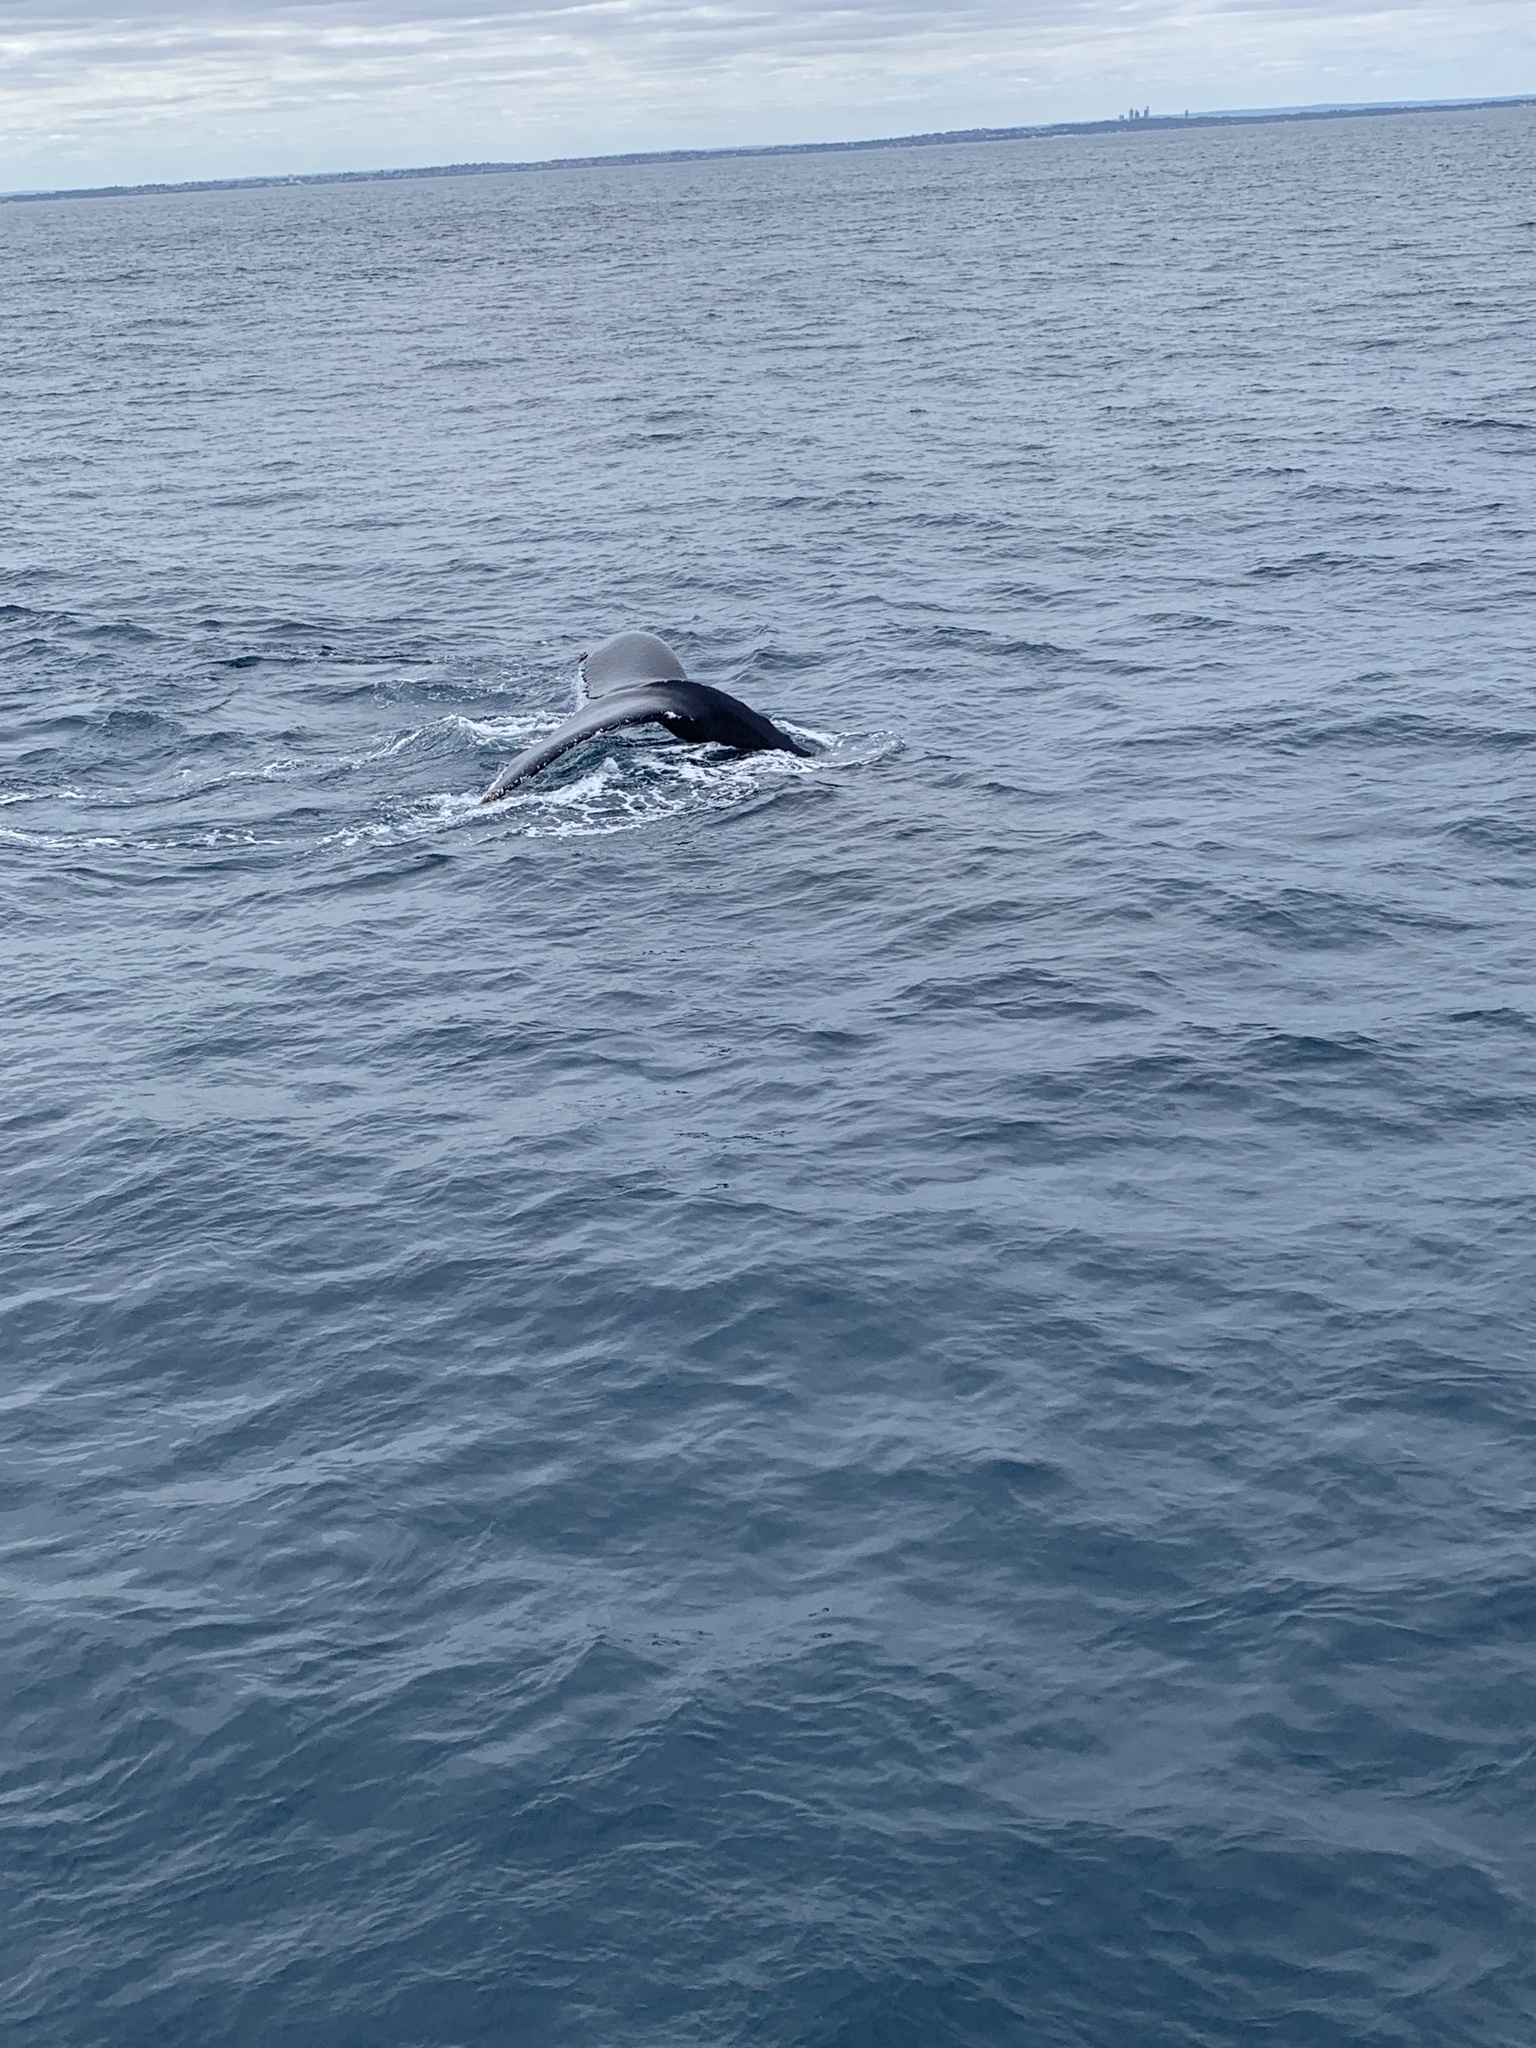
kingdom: Animalia
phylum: Chordata
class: Mammalia
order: Cetacea
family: Balaenopteridae
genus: Megaptera
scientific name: Megaptera novaeangliae
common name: Humpback whale
